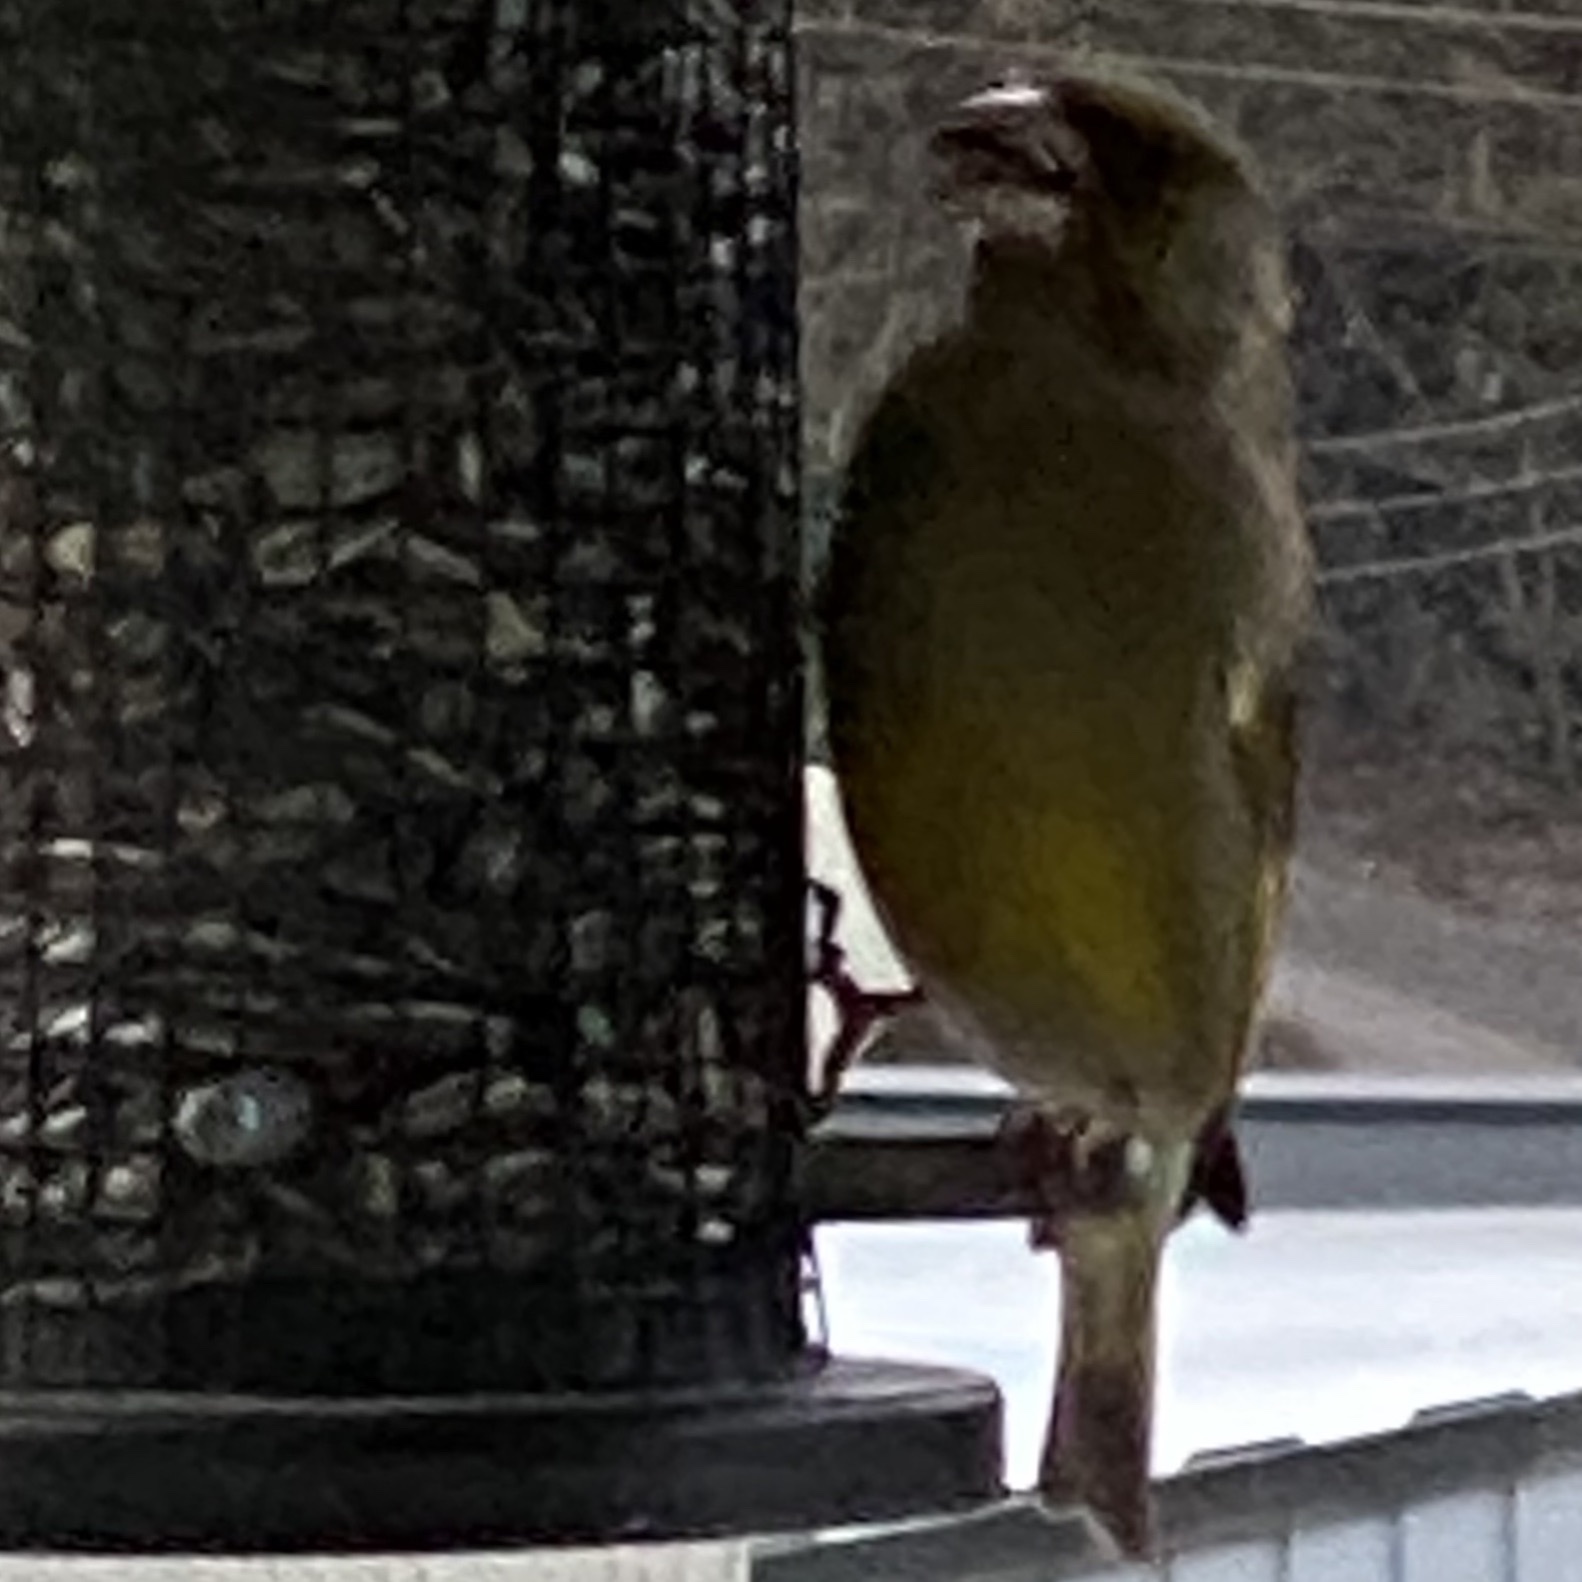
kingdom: Plantae
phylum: Tracheophyta
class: Liliopsida
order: Poales
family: Poaceae
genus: Chloris
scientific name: Chloris chloris
